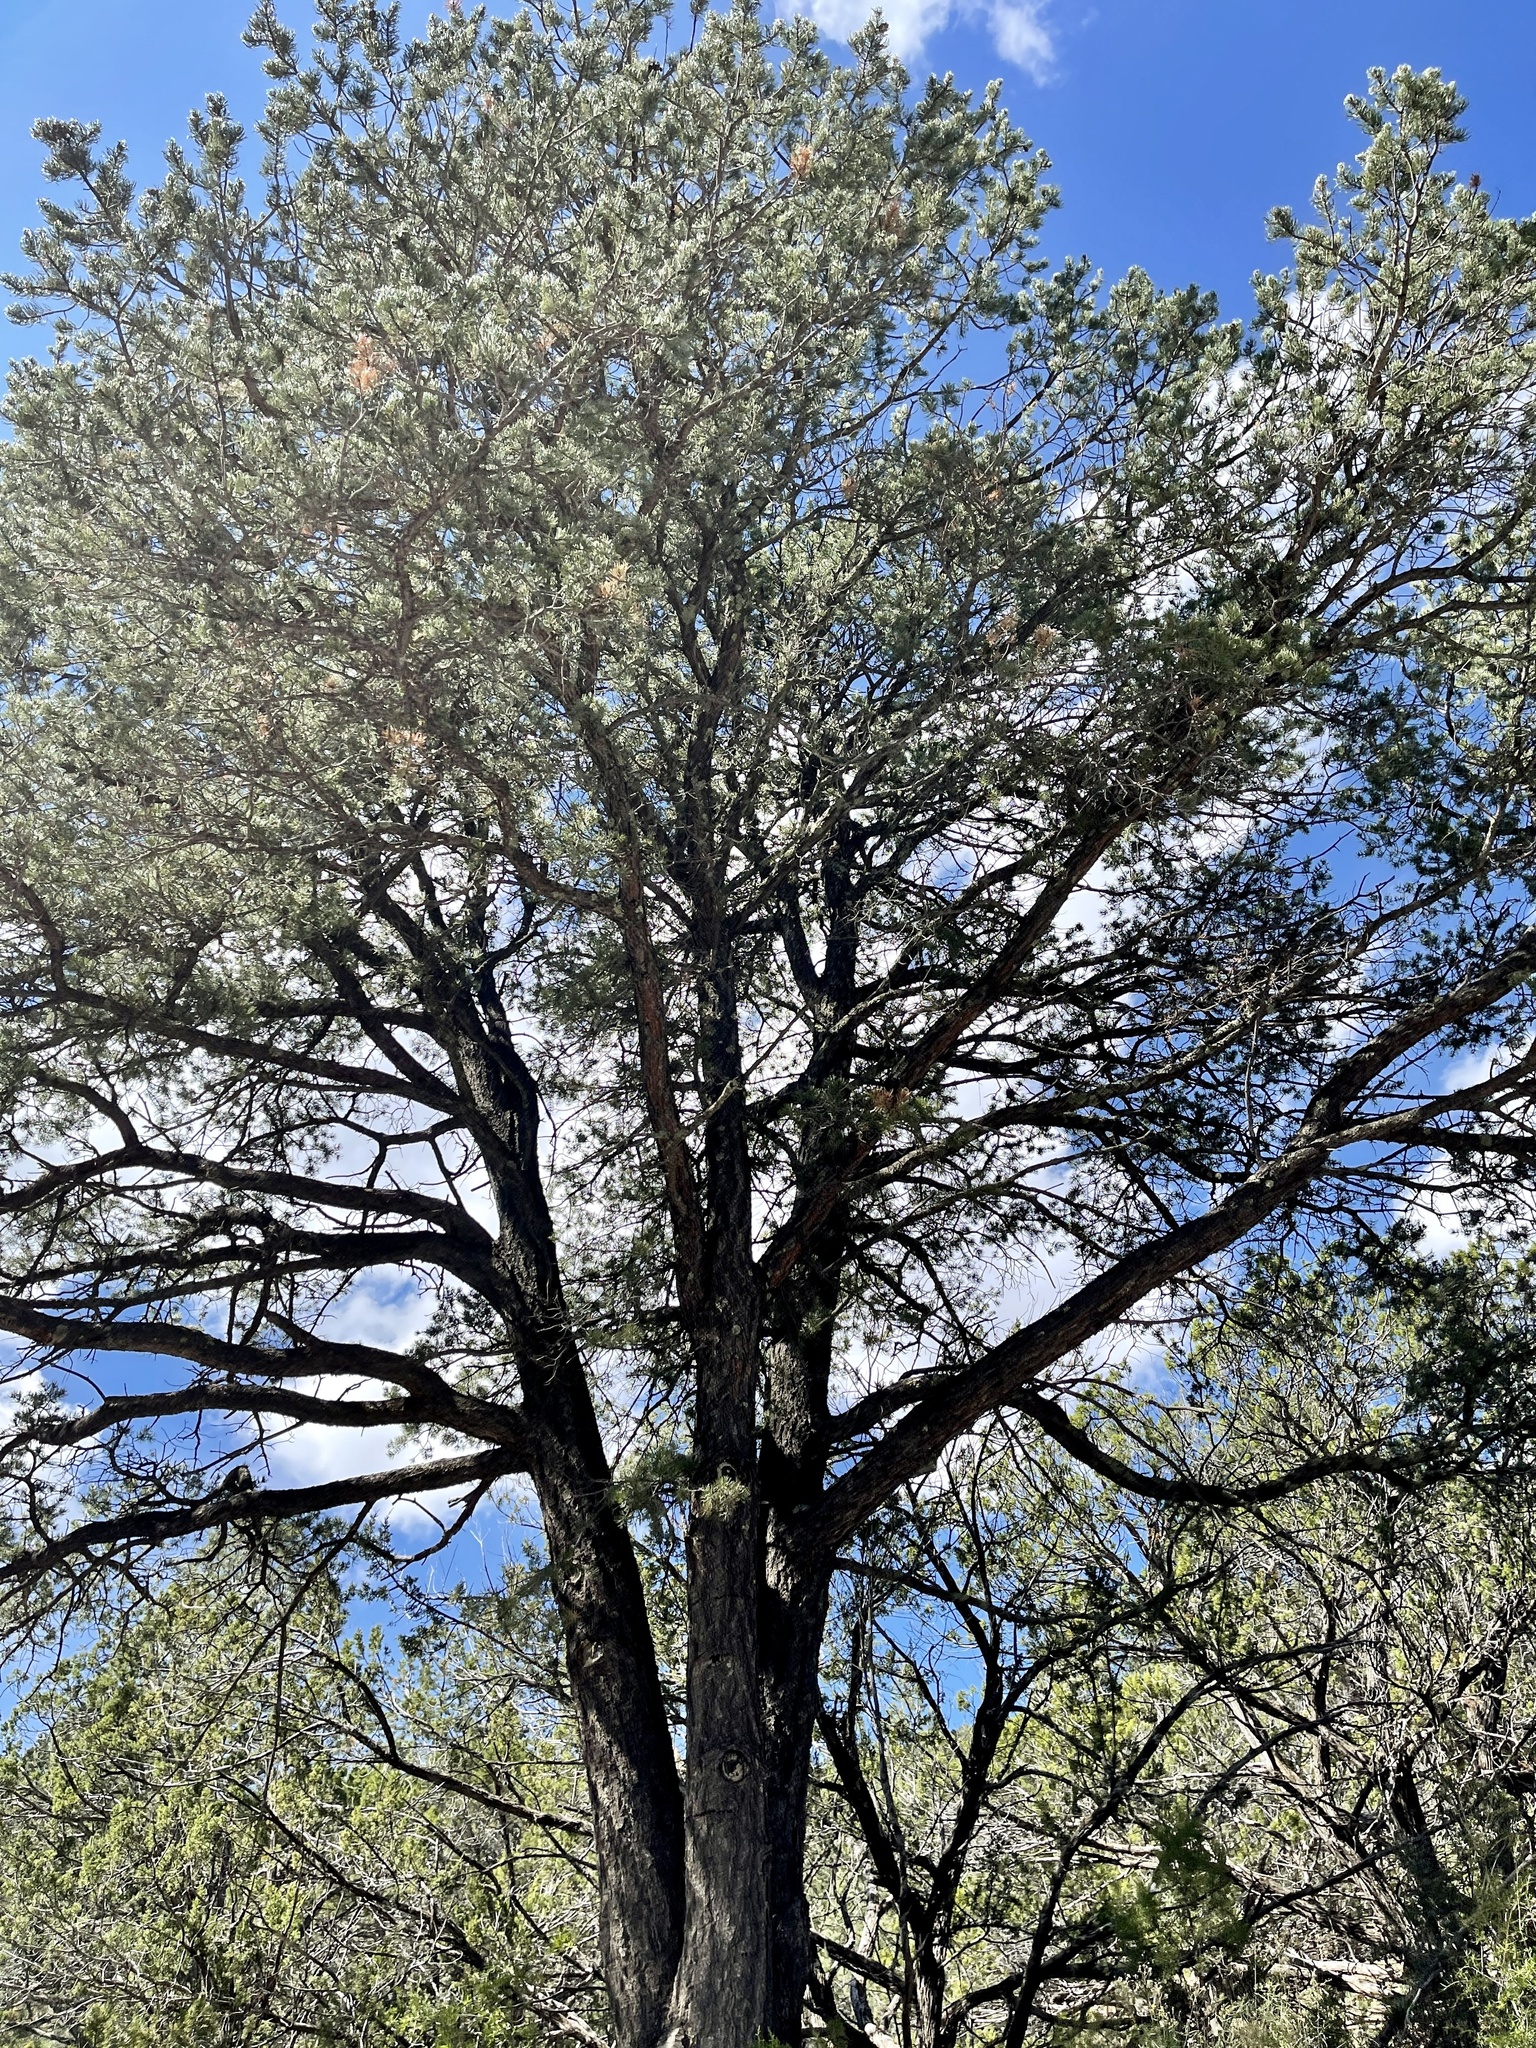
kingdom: Plantae
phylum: Tracheophyta
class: Pinopsida
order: Pinales
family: Pinaceae
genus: Pinus
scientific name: Pinus edulis
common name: Colorado pinyon
